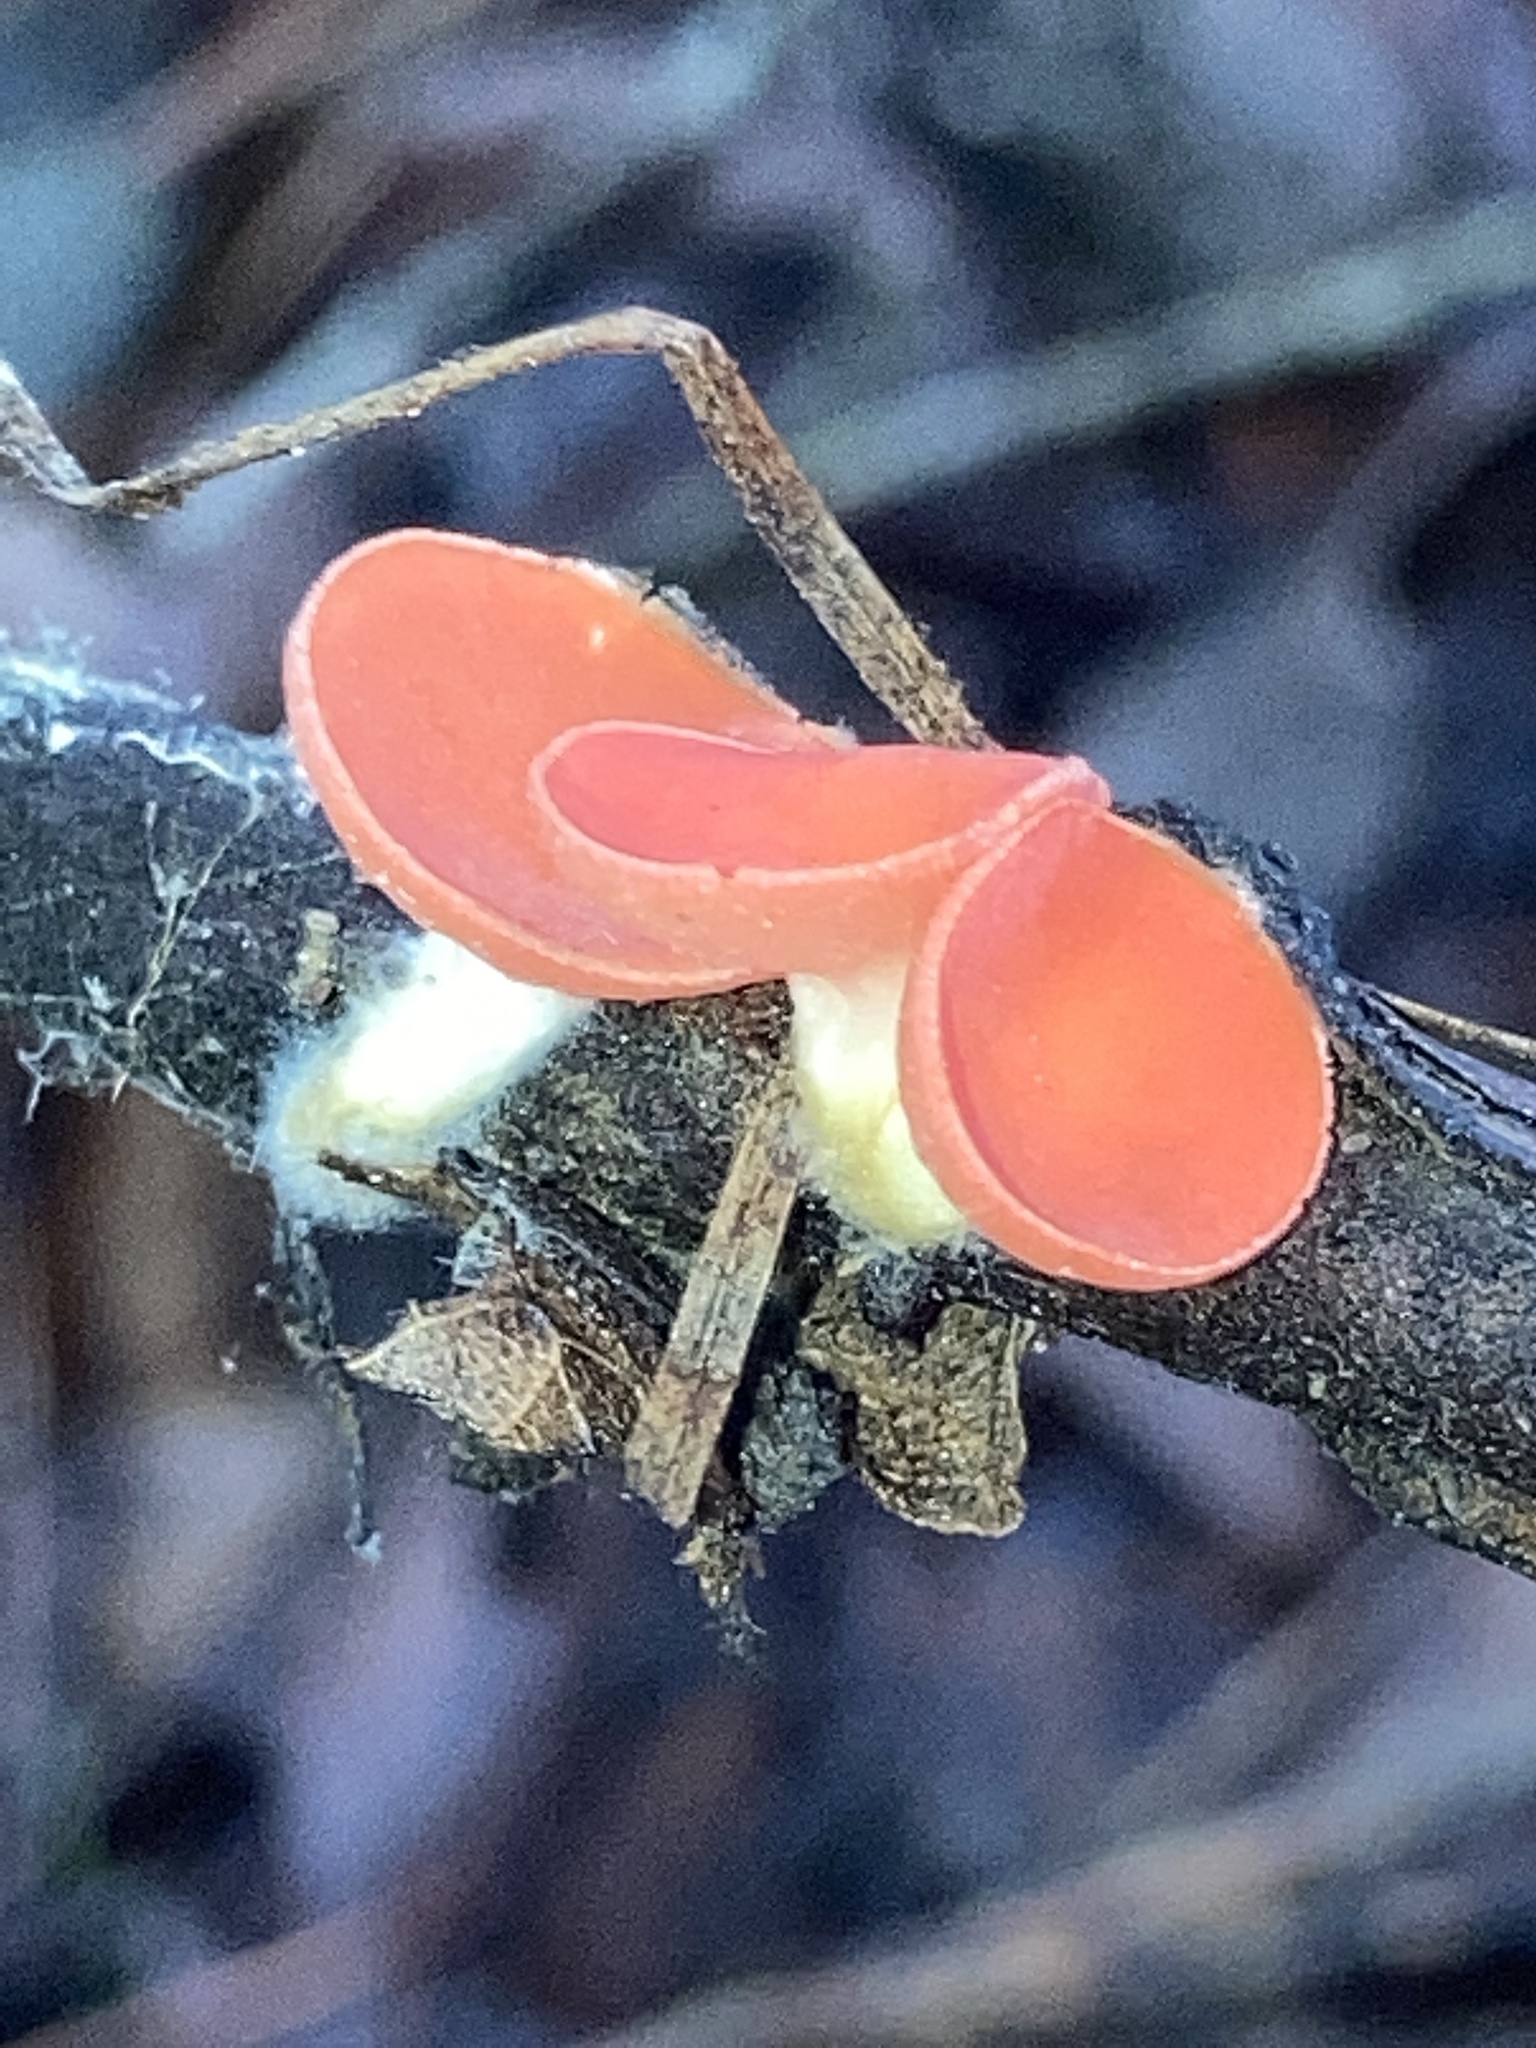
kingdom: Fungi
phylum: Ascomycota
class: Pezizomycetes
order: Pezizales
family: Sarcoscyphaceae
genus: Sarcoscypha
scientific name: Sarcoscypha occidentalis
